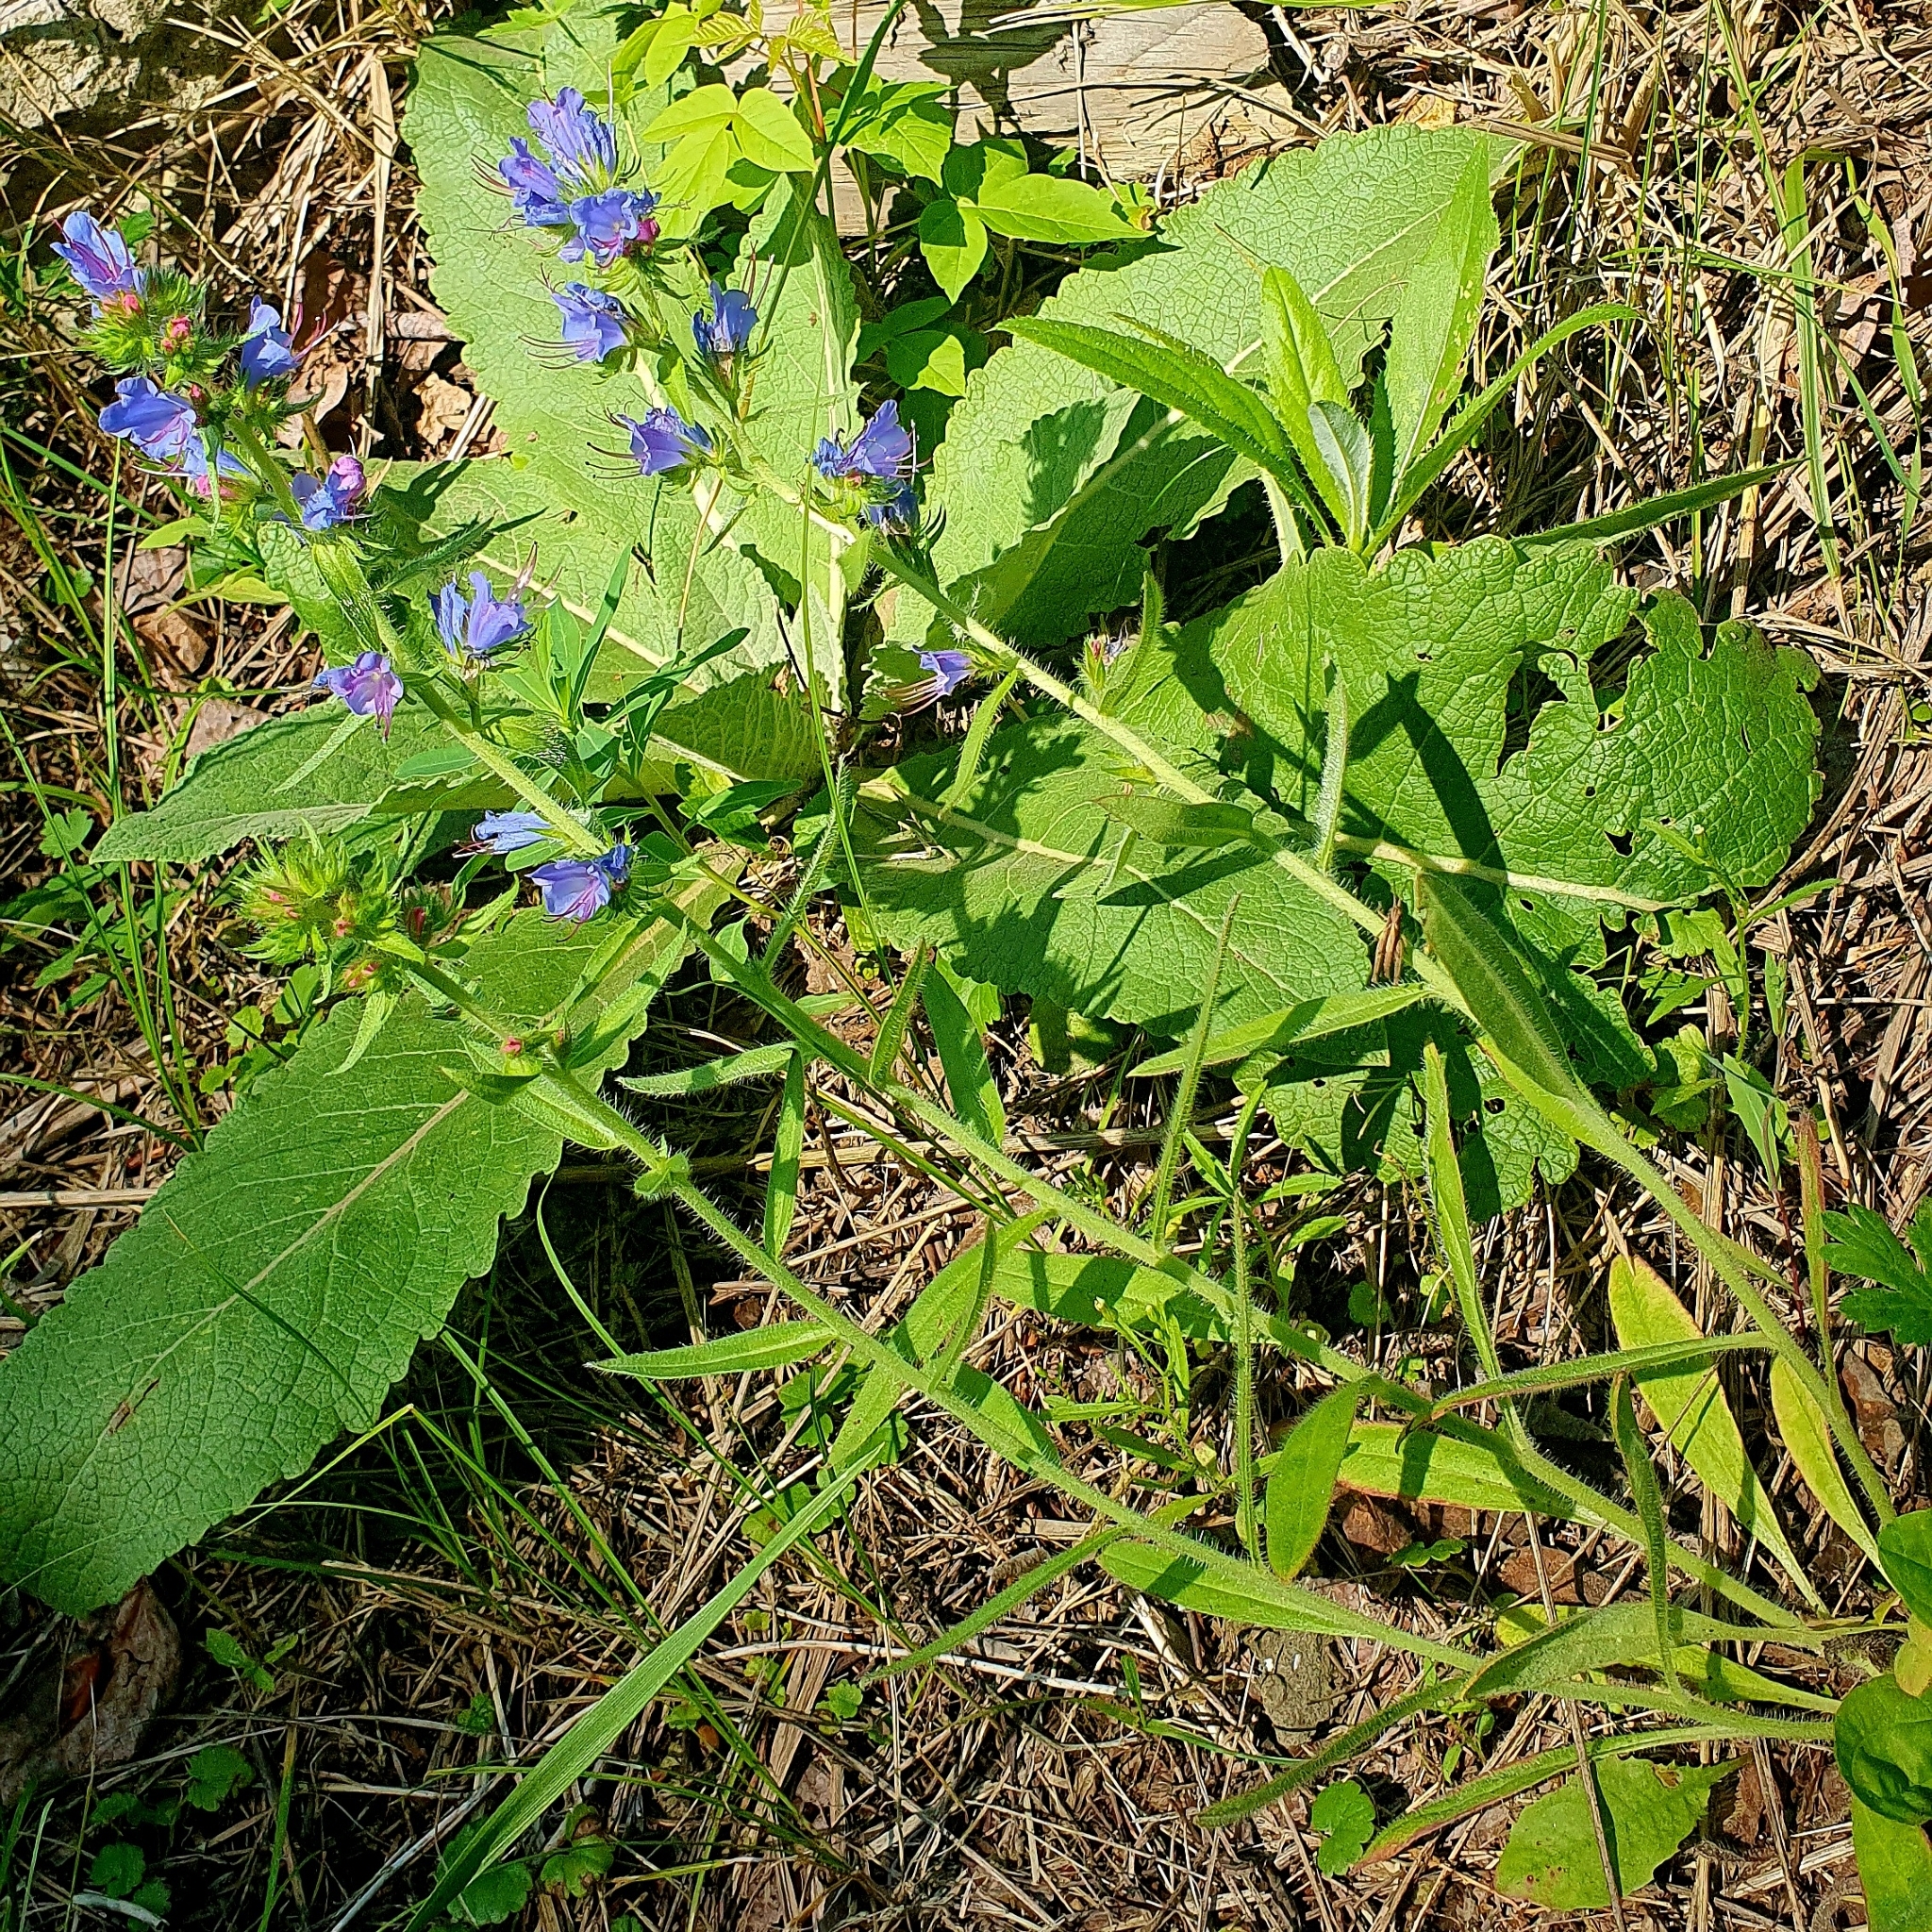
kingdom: Plantae
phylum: Tracheophyta
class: Magnoliopsida
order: Boraginales
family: Boraginaceae
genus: Echium
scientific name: Echium vulgare
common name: Common viper's bugloss
